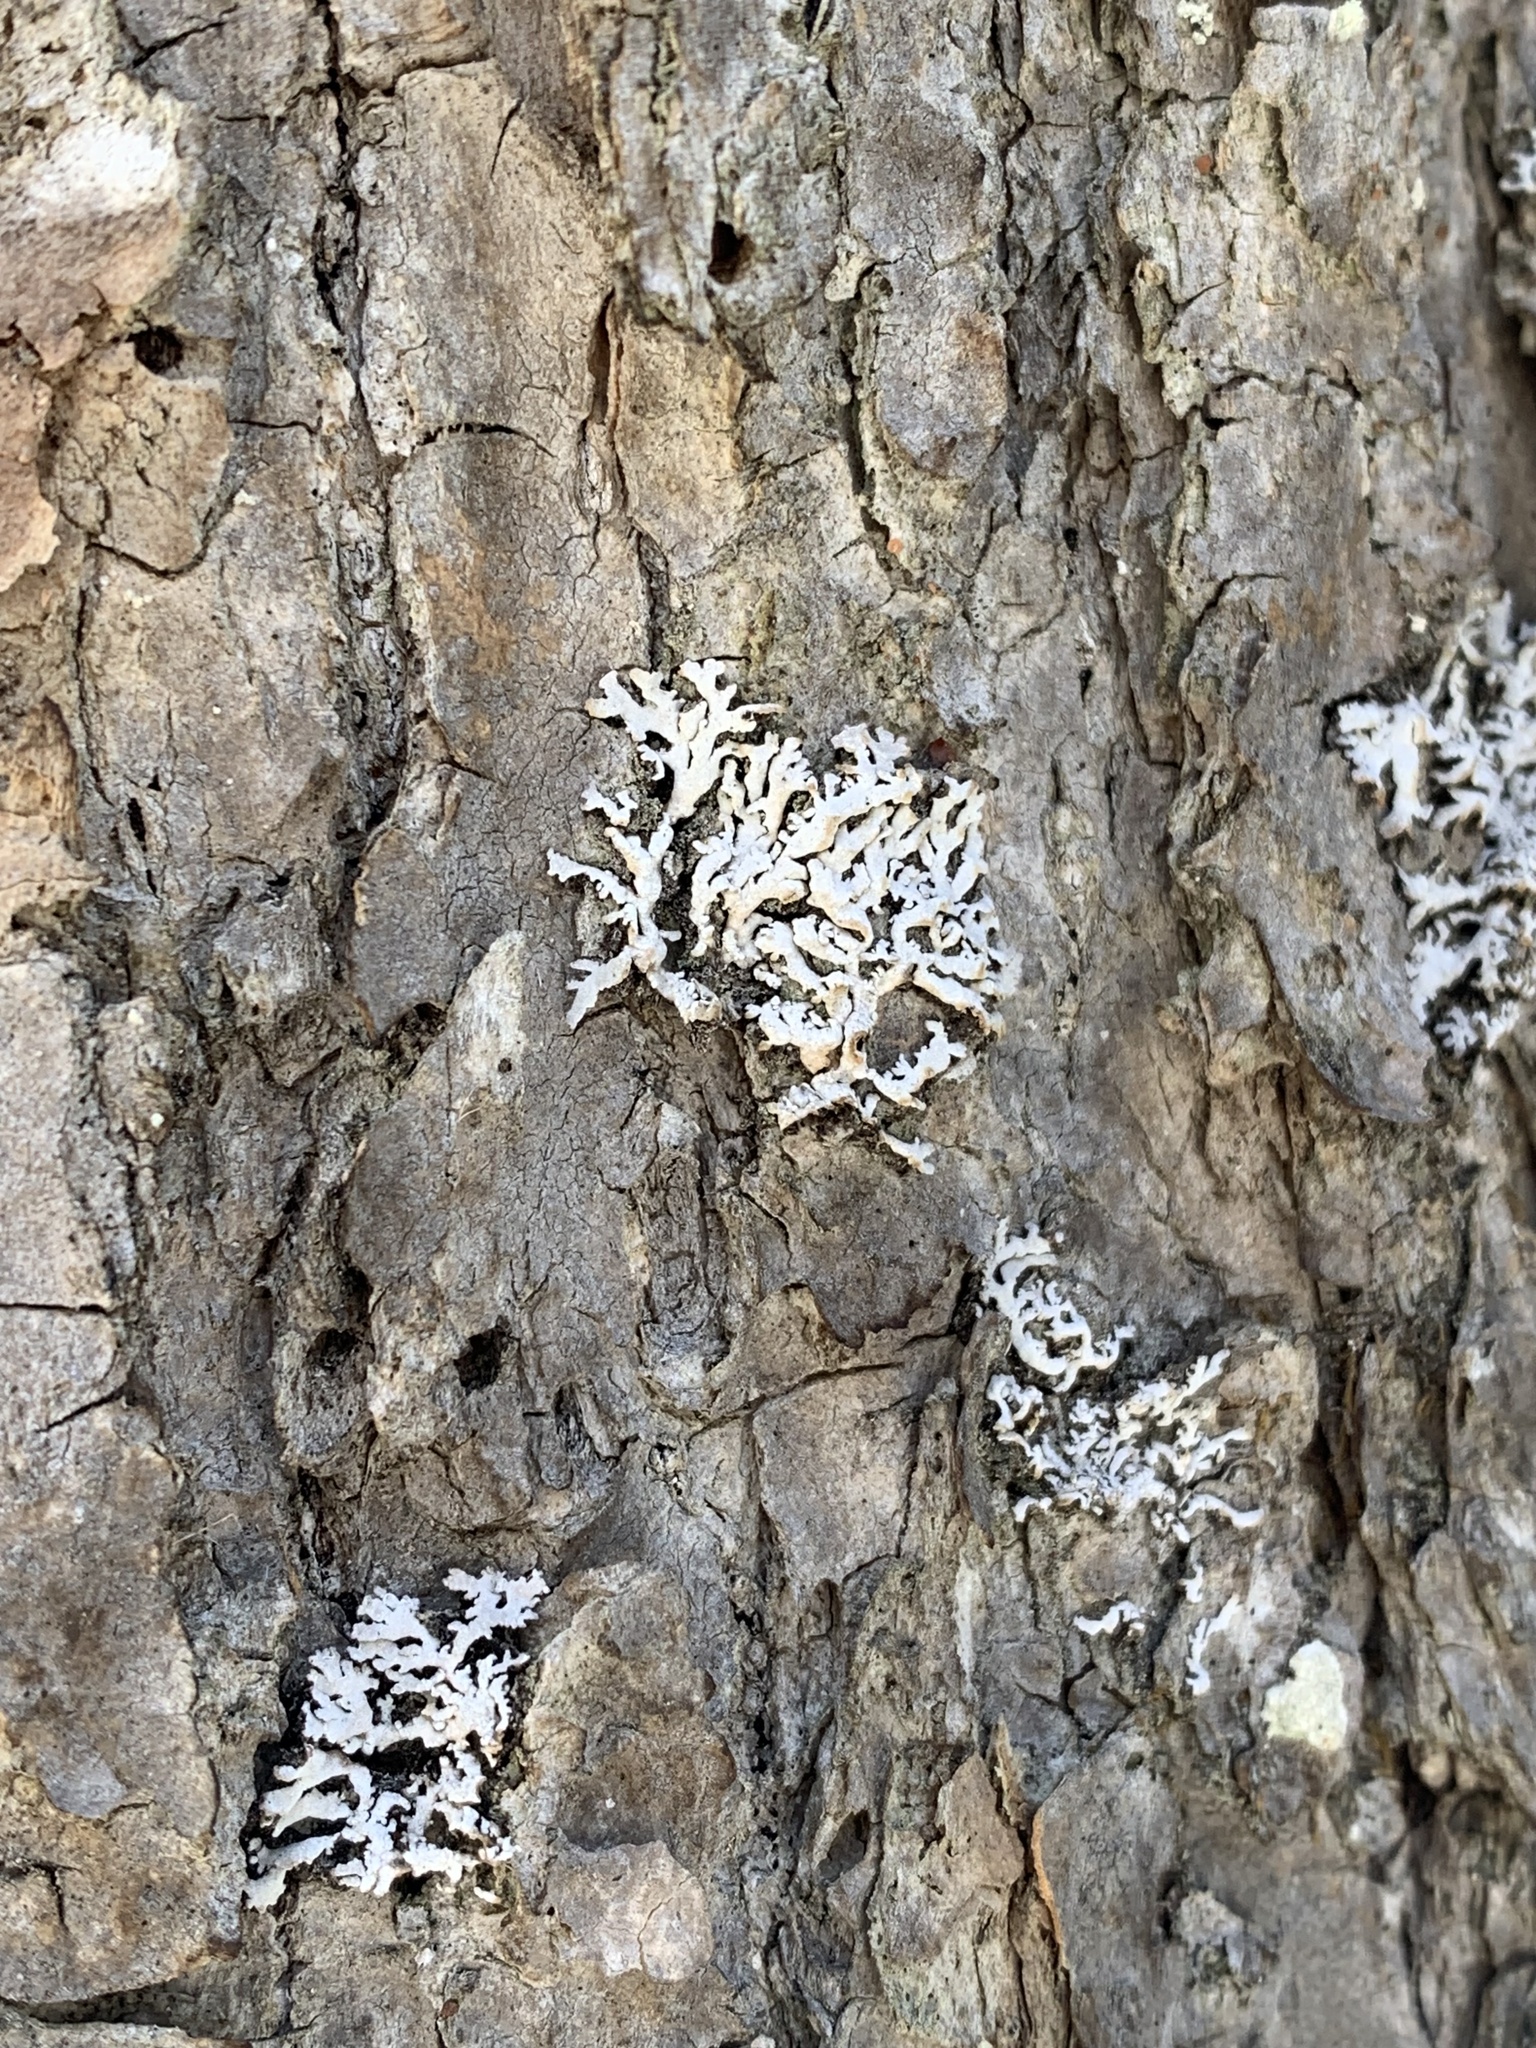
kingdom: Fungi
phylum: Ascomycota
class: Lecanoromycetes
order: Caliciales
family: Physciaceae
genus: Physconia
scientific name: Physconia subpallida
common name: Pale-belly frost lichen
